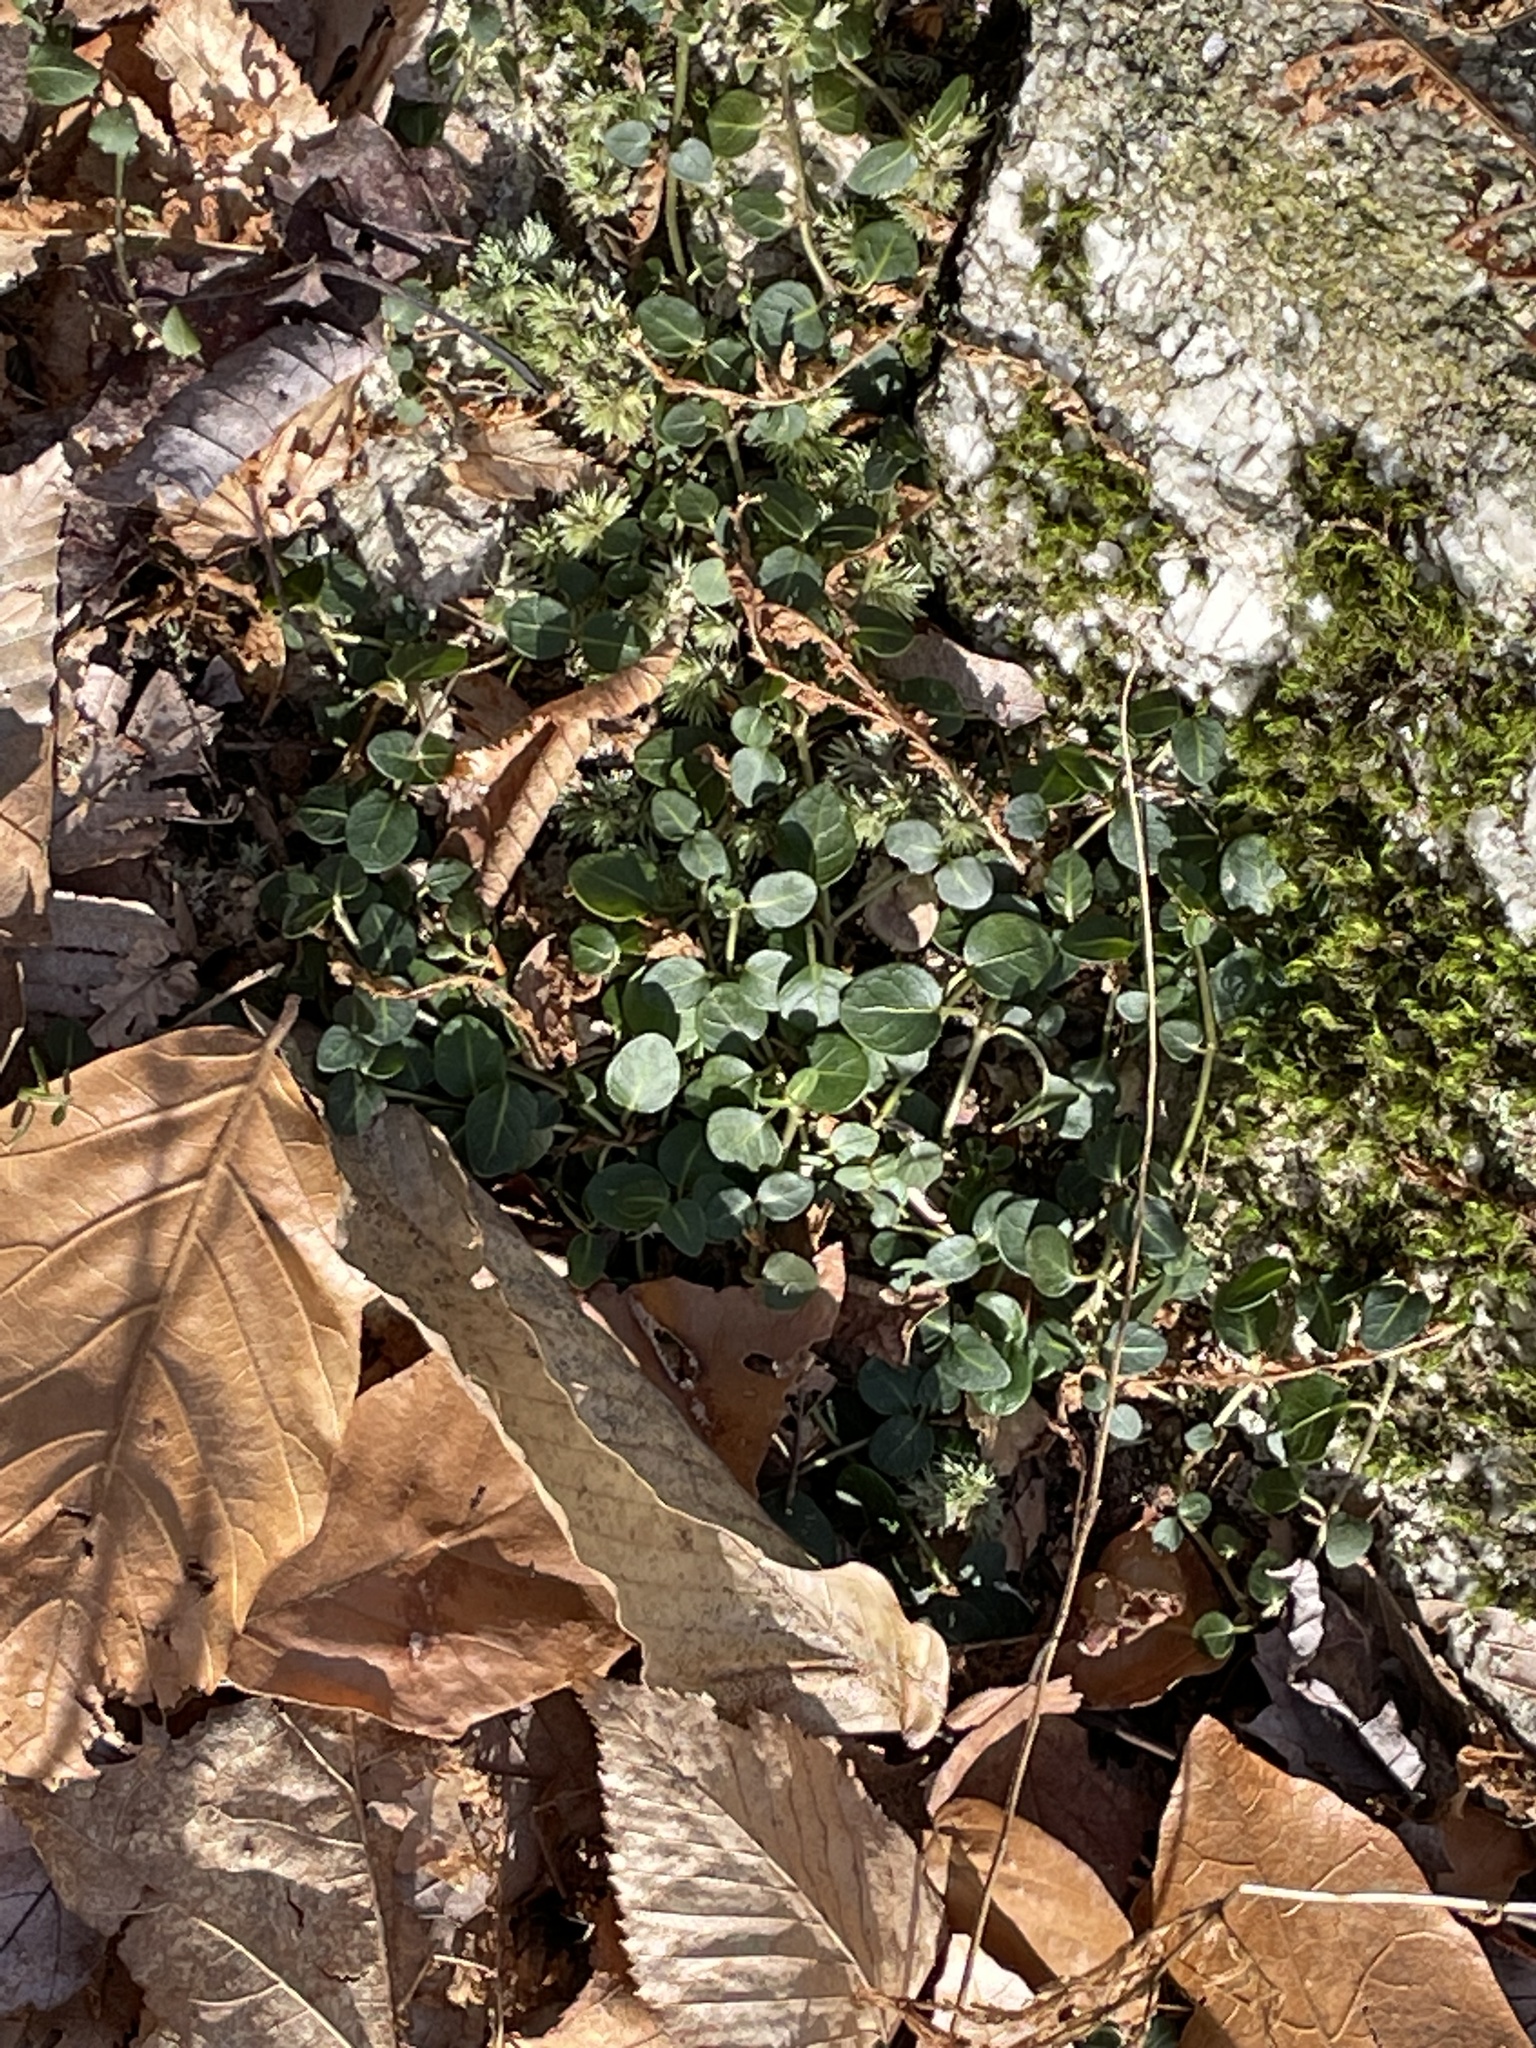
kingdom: Plantae
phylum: Tracheophyta
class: Magnoliopsida
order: Gentianales
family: Rubiaceae
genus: Mitchella
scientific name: Mitchella repens
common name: Partridge-berry
